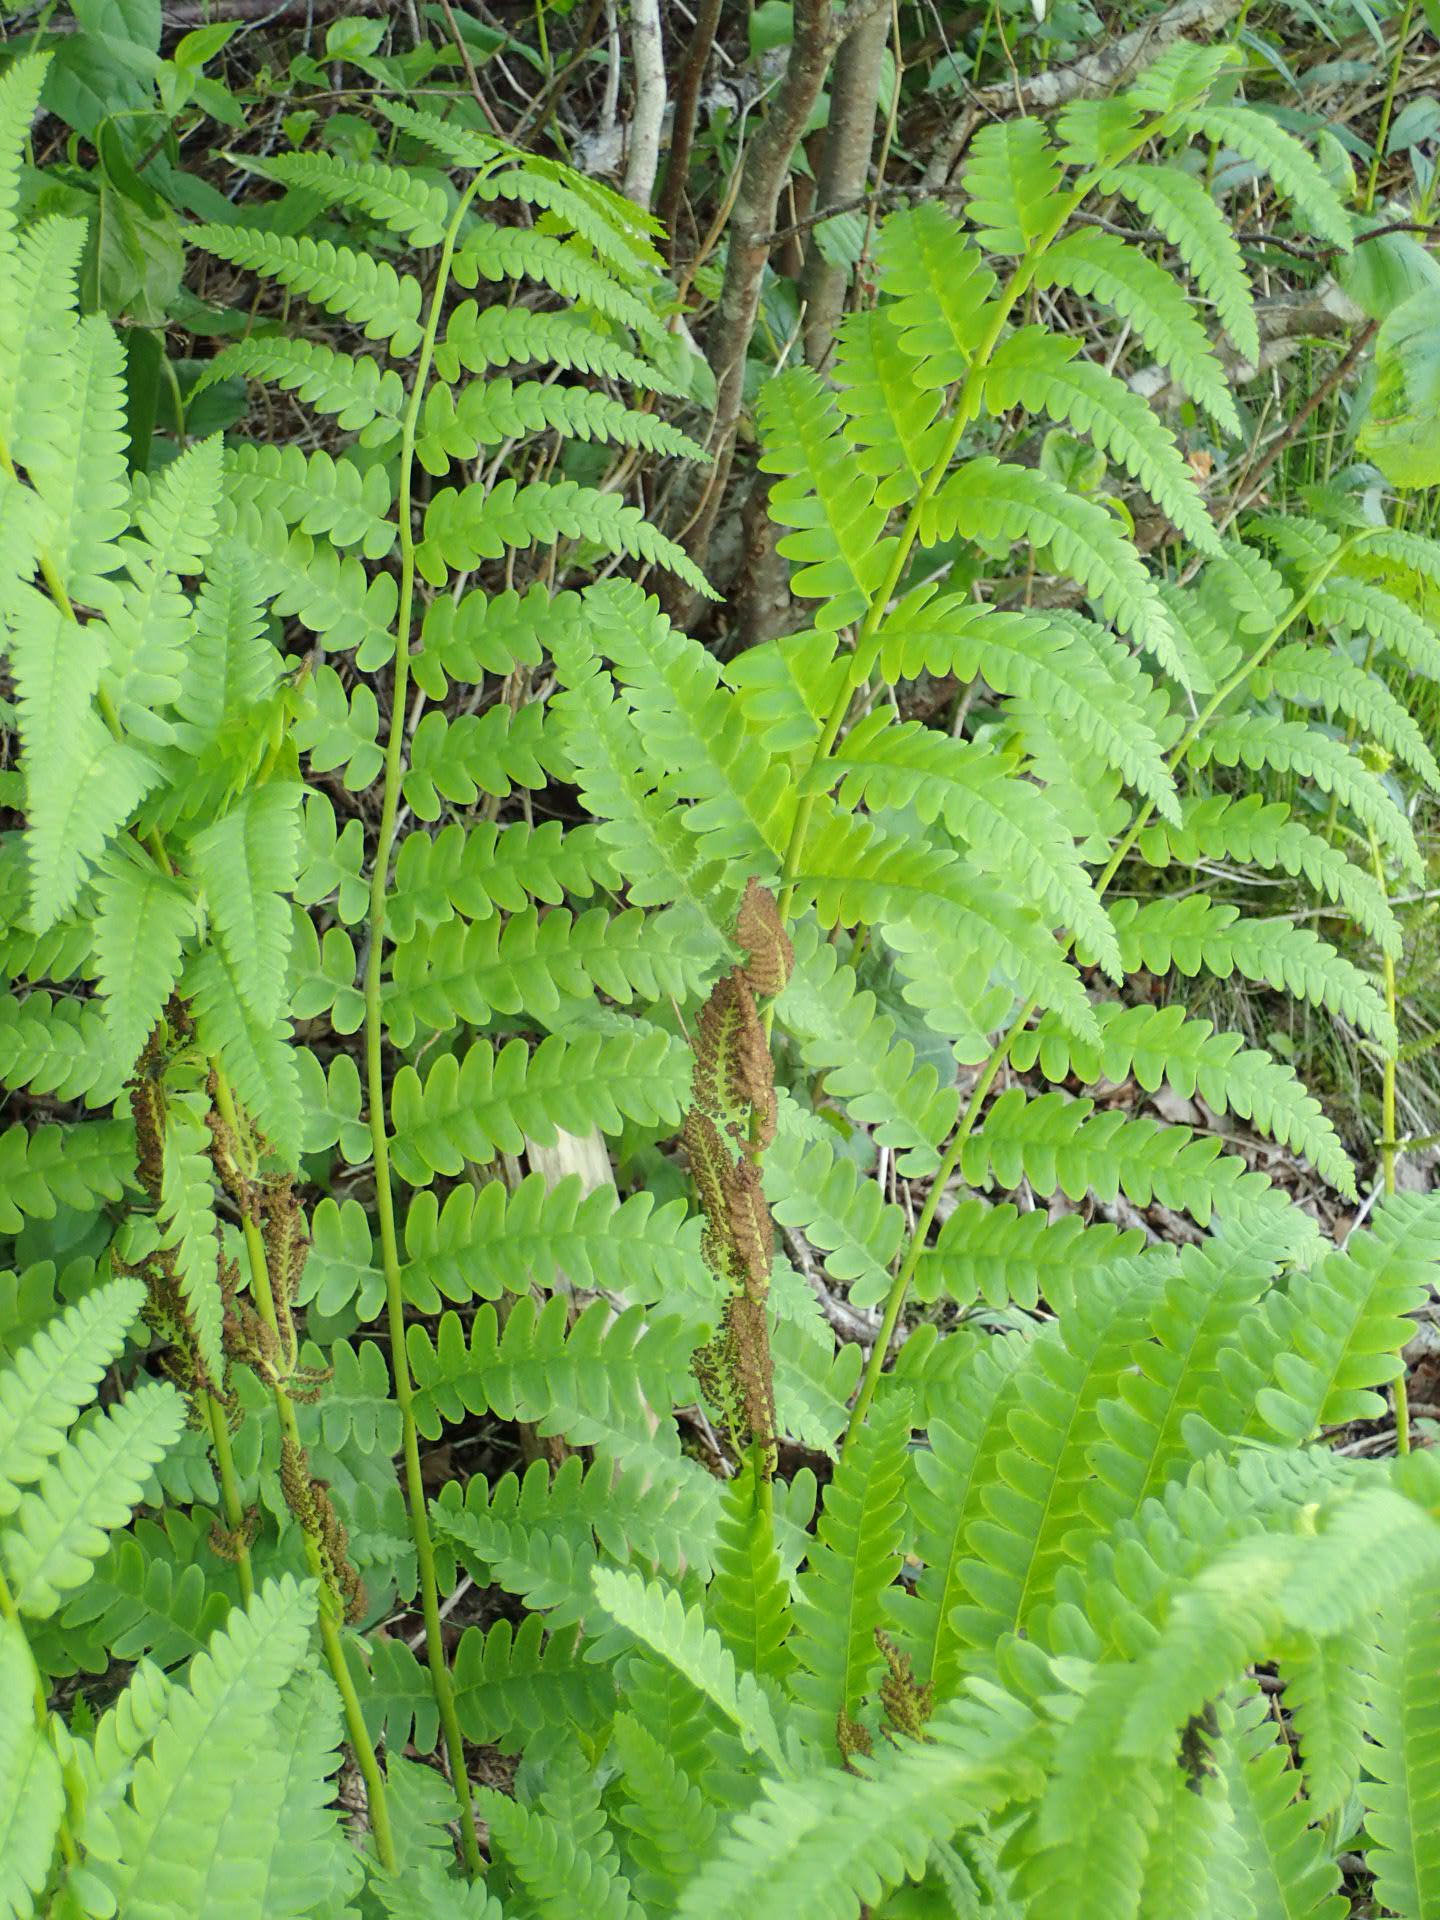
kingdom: Plantae
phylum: Tracheophyta
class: Polypodiopsida
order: Osmundales
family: Osmundaceae
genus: Claytosmunda
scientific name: Claytosmunda claytoniana
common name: Clayton's fern
